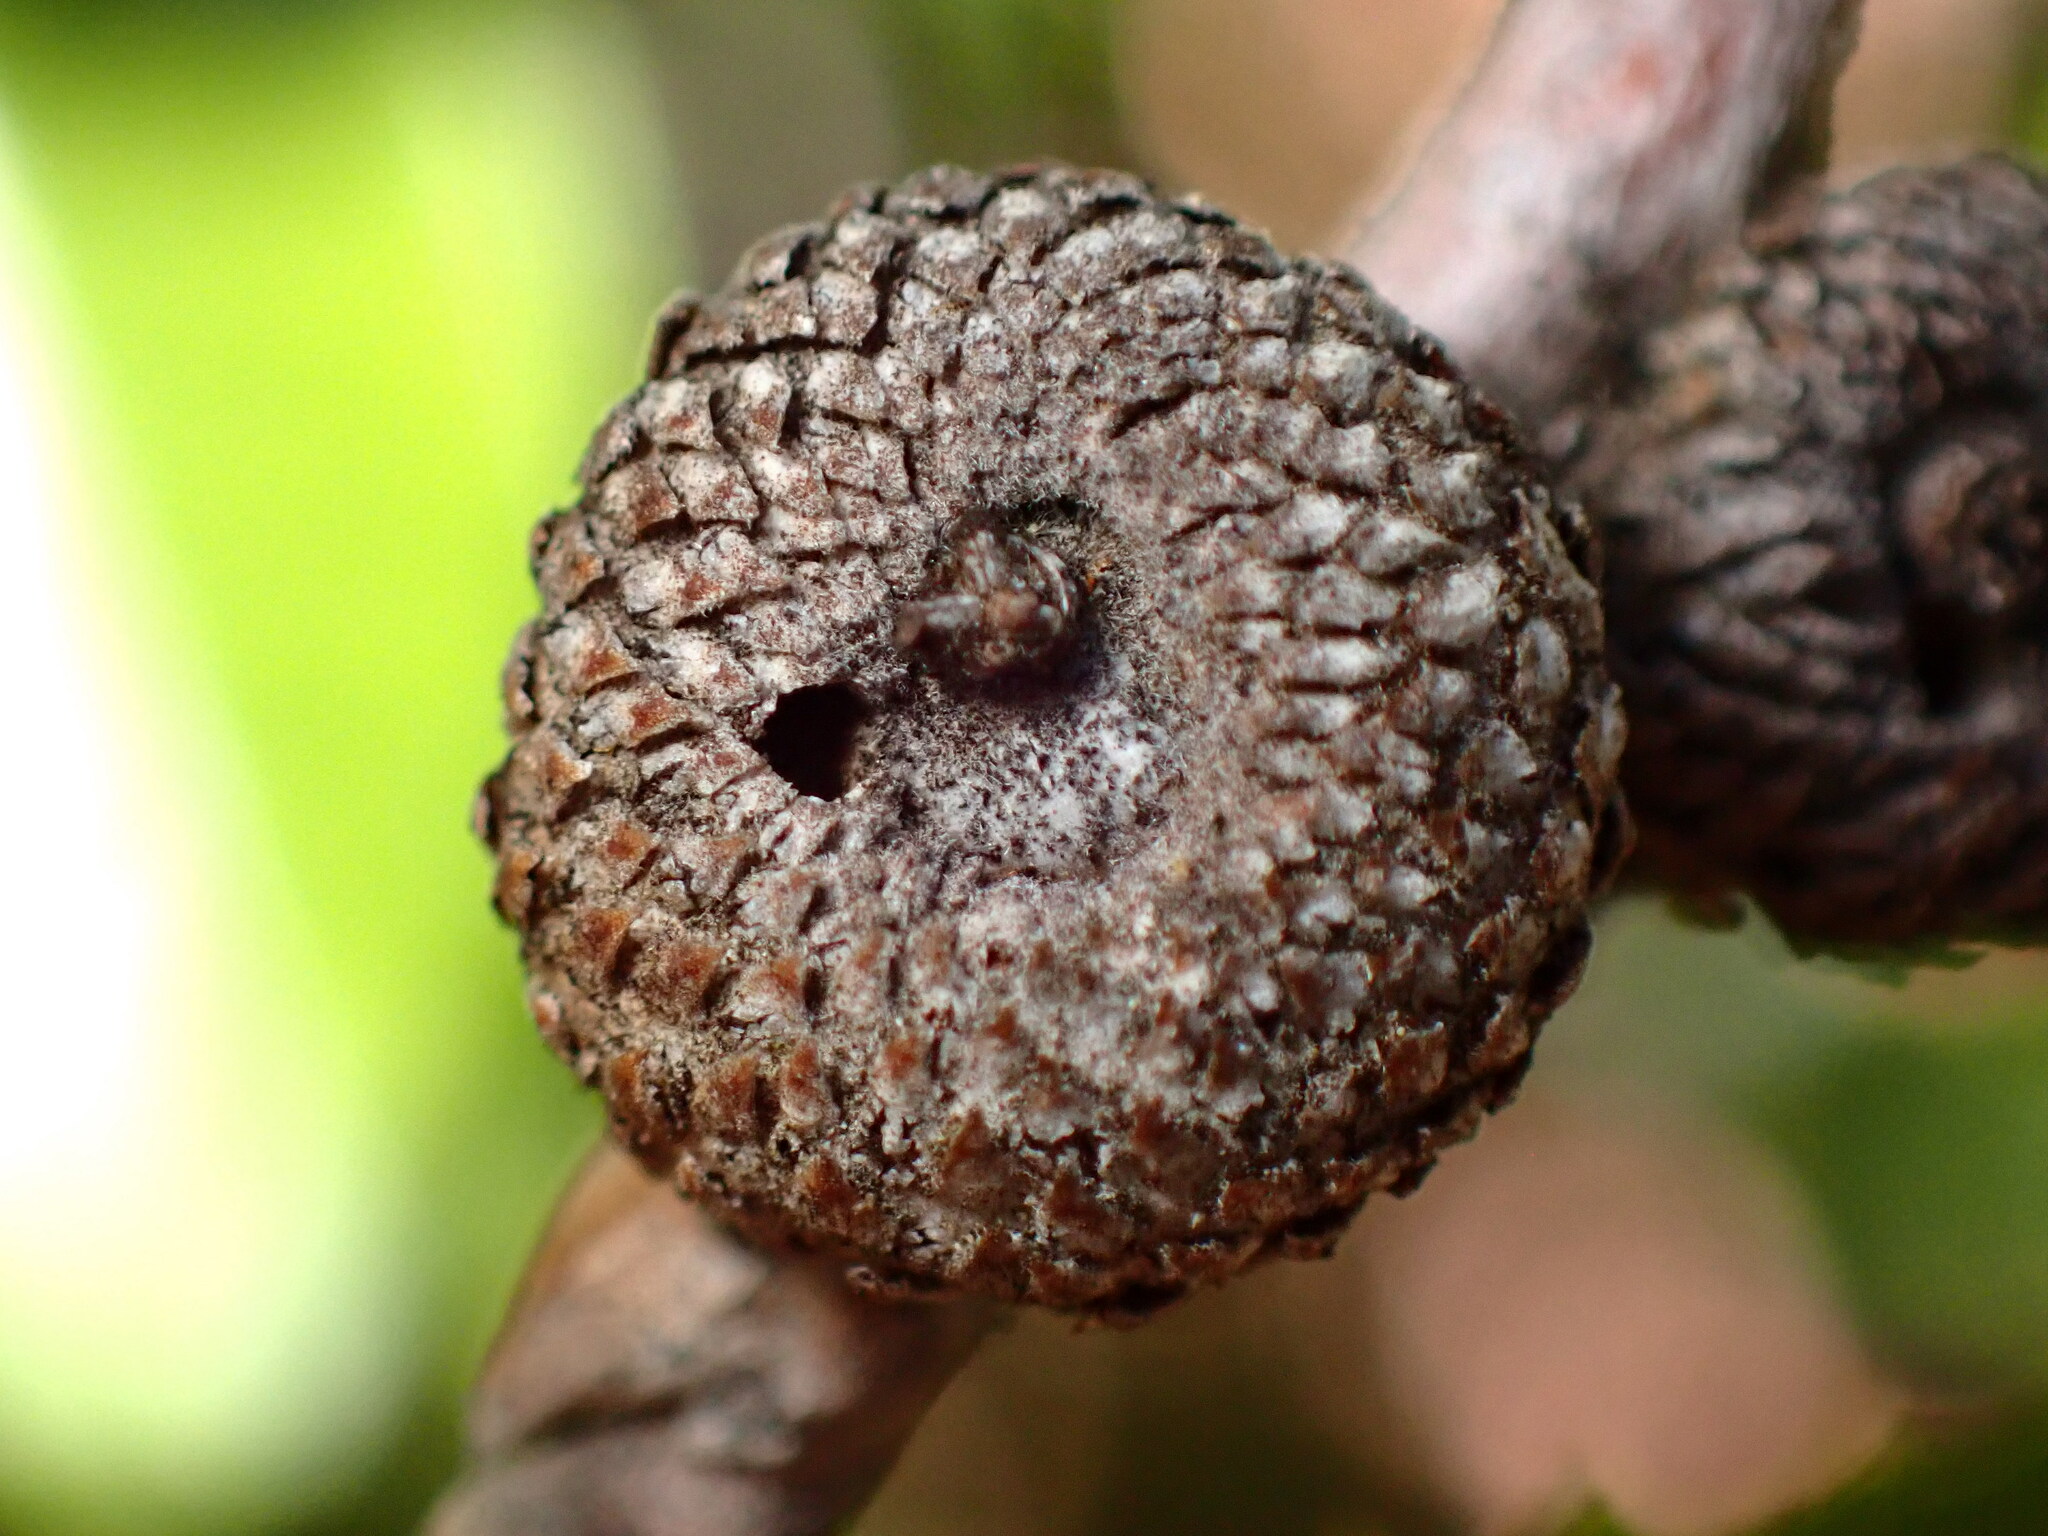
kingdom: Animalia
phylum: Arthropoda
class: Insecta
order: Hymenoptera
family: Cynipidae
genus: Andricus
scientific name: Andricus
